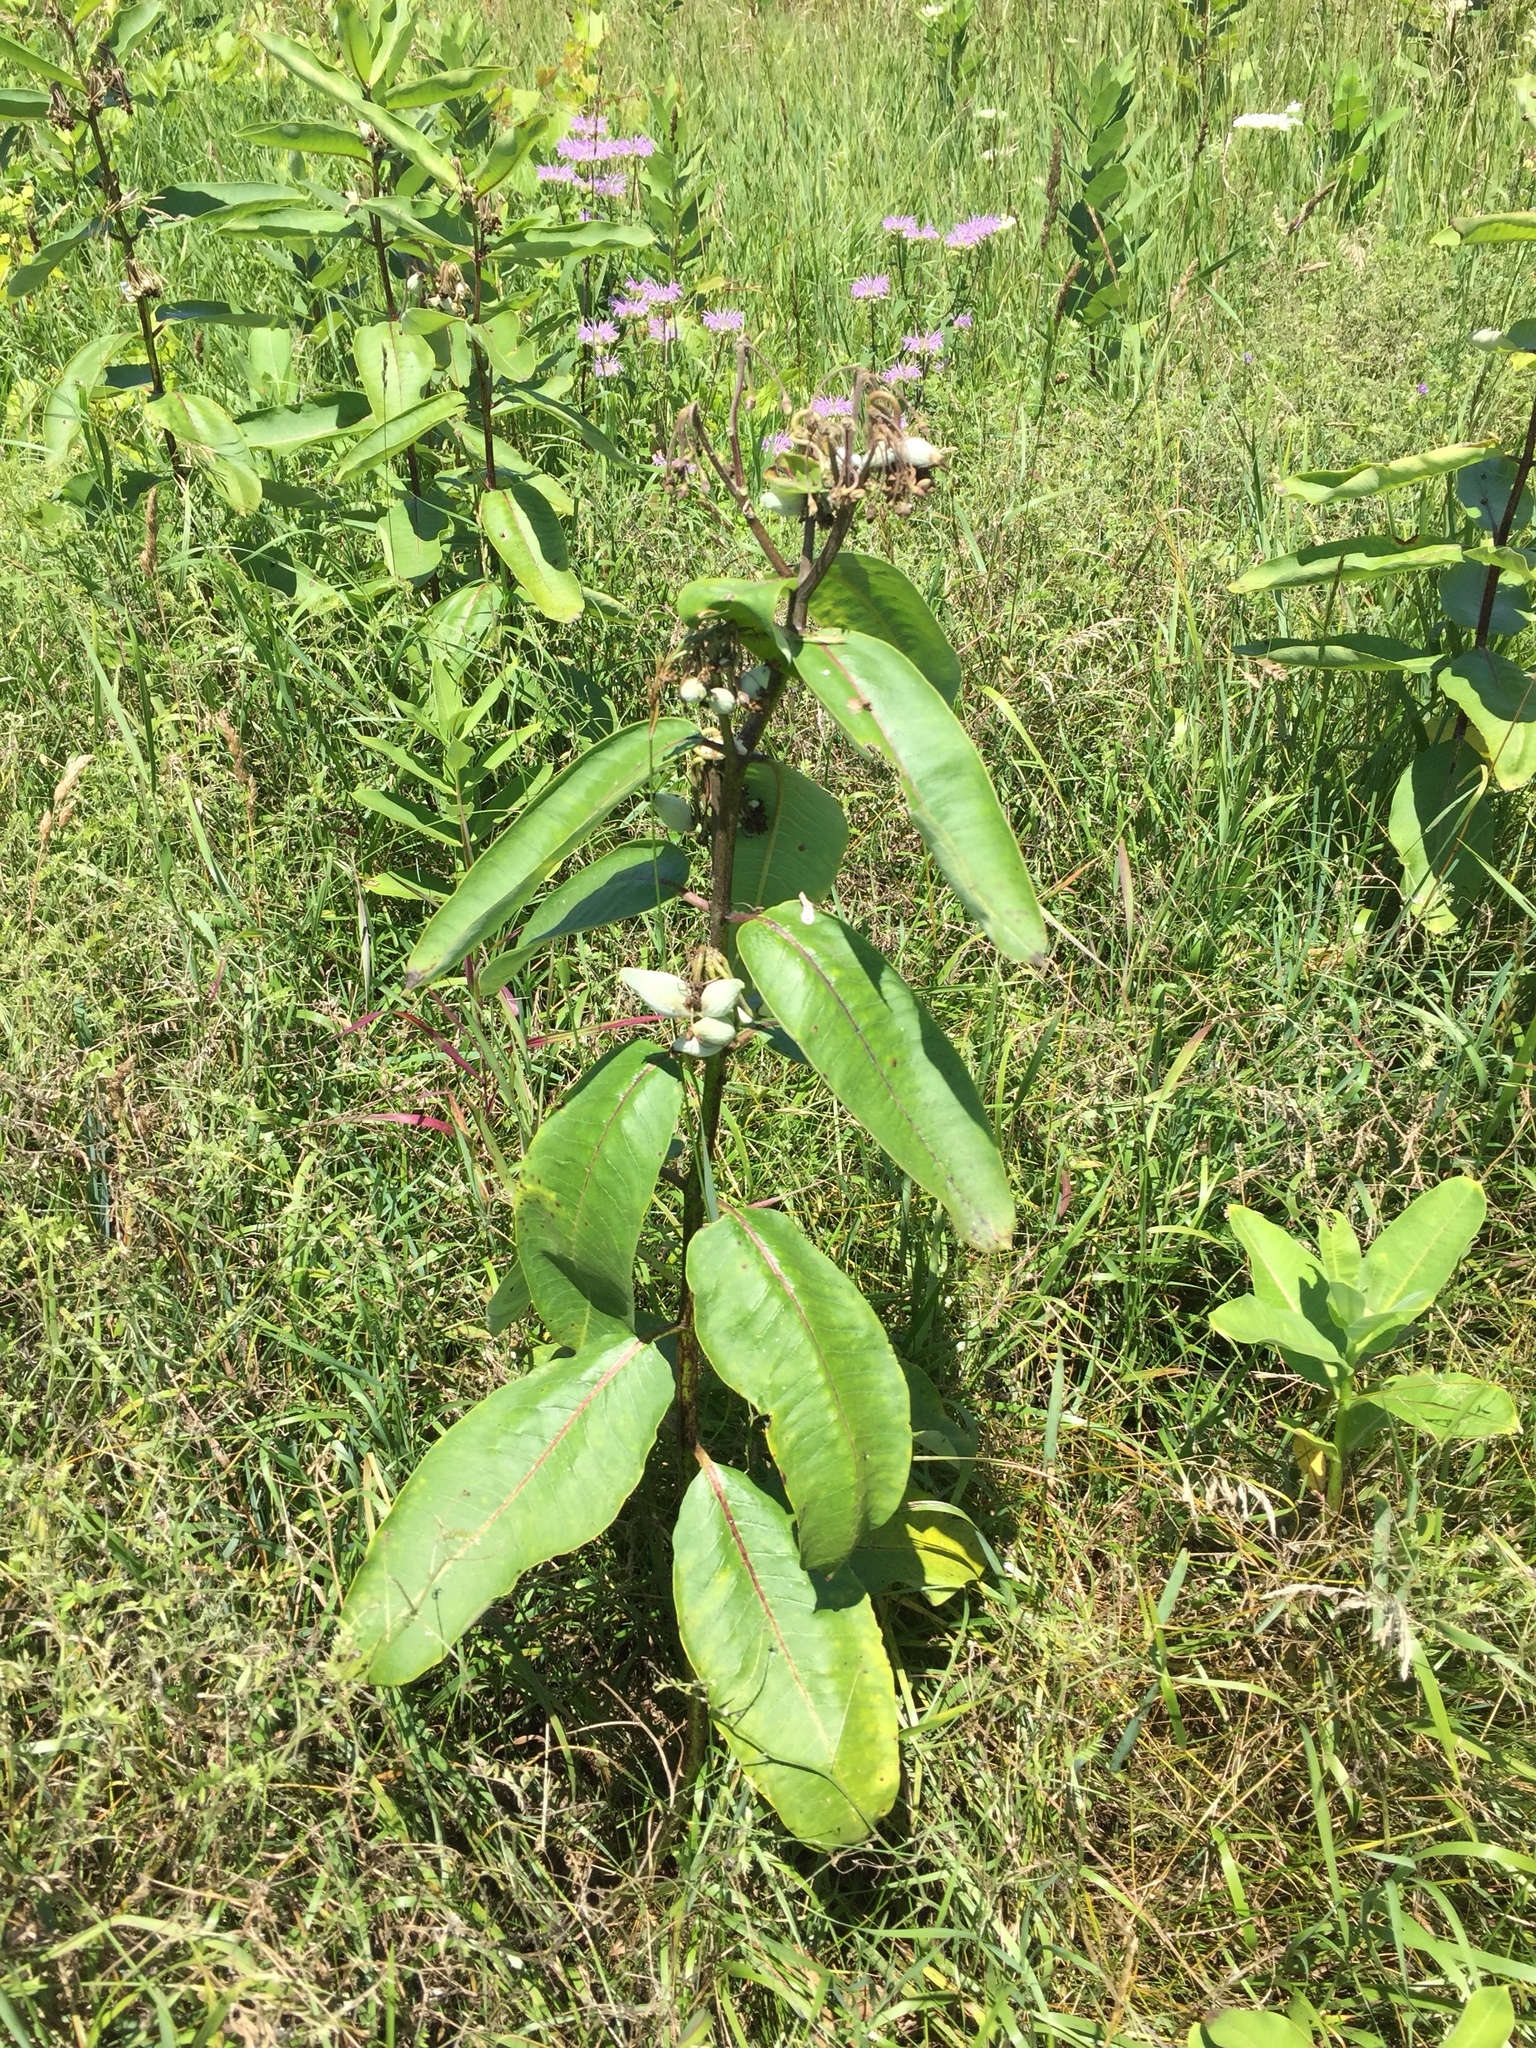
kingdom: Plantae
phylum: Tracheophyta
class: Magnoliopsida
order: Gentianales
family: Apocynaceae
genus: Asclepias
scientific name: Asclepias syriaca
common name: Common milkweed
